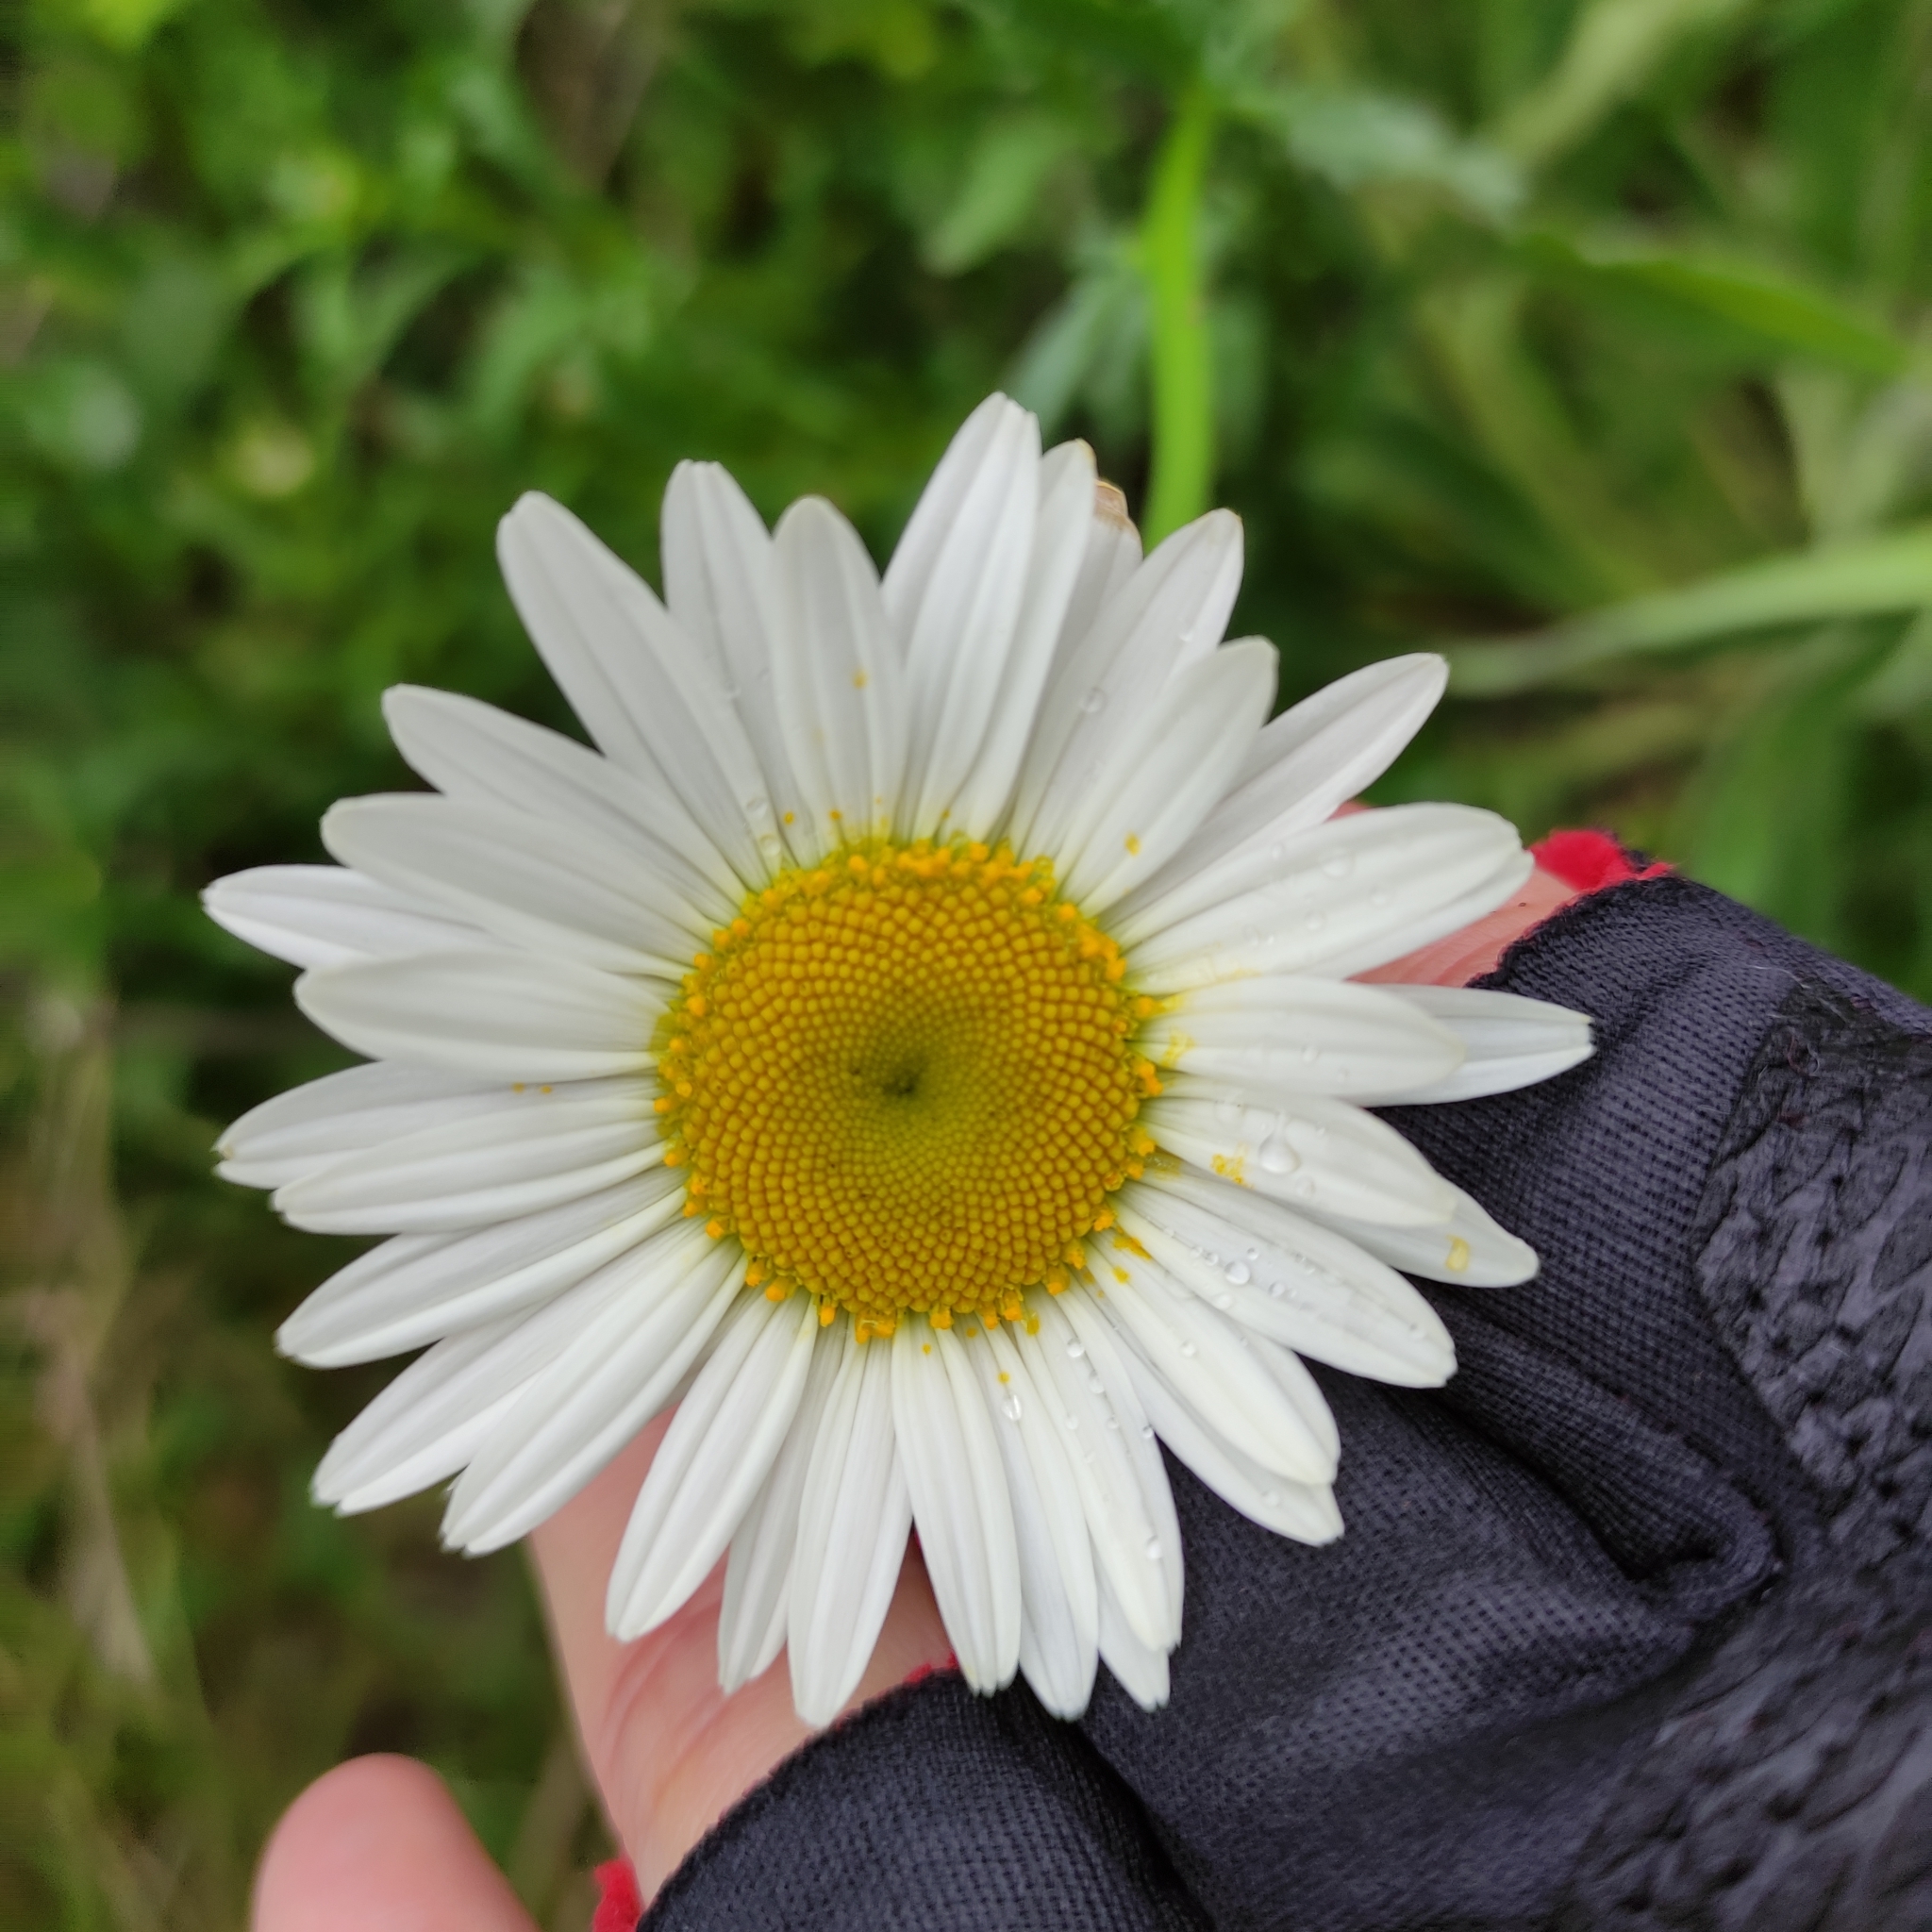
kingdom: Plantae
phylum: Tracheophyta
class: Magnoliopsida
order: Asterales
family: Asteraceae
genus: Leucanthemum
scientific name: Leucanthemum vulgare
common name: Oxeye daisy
